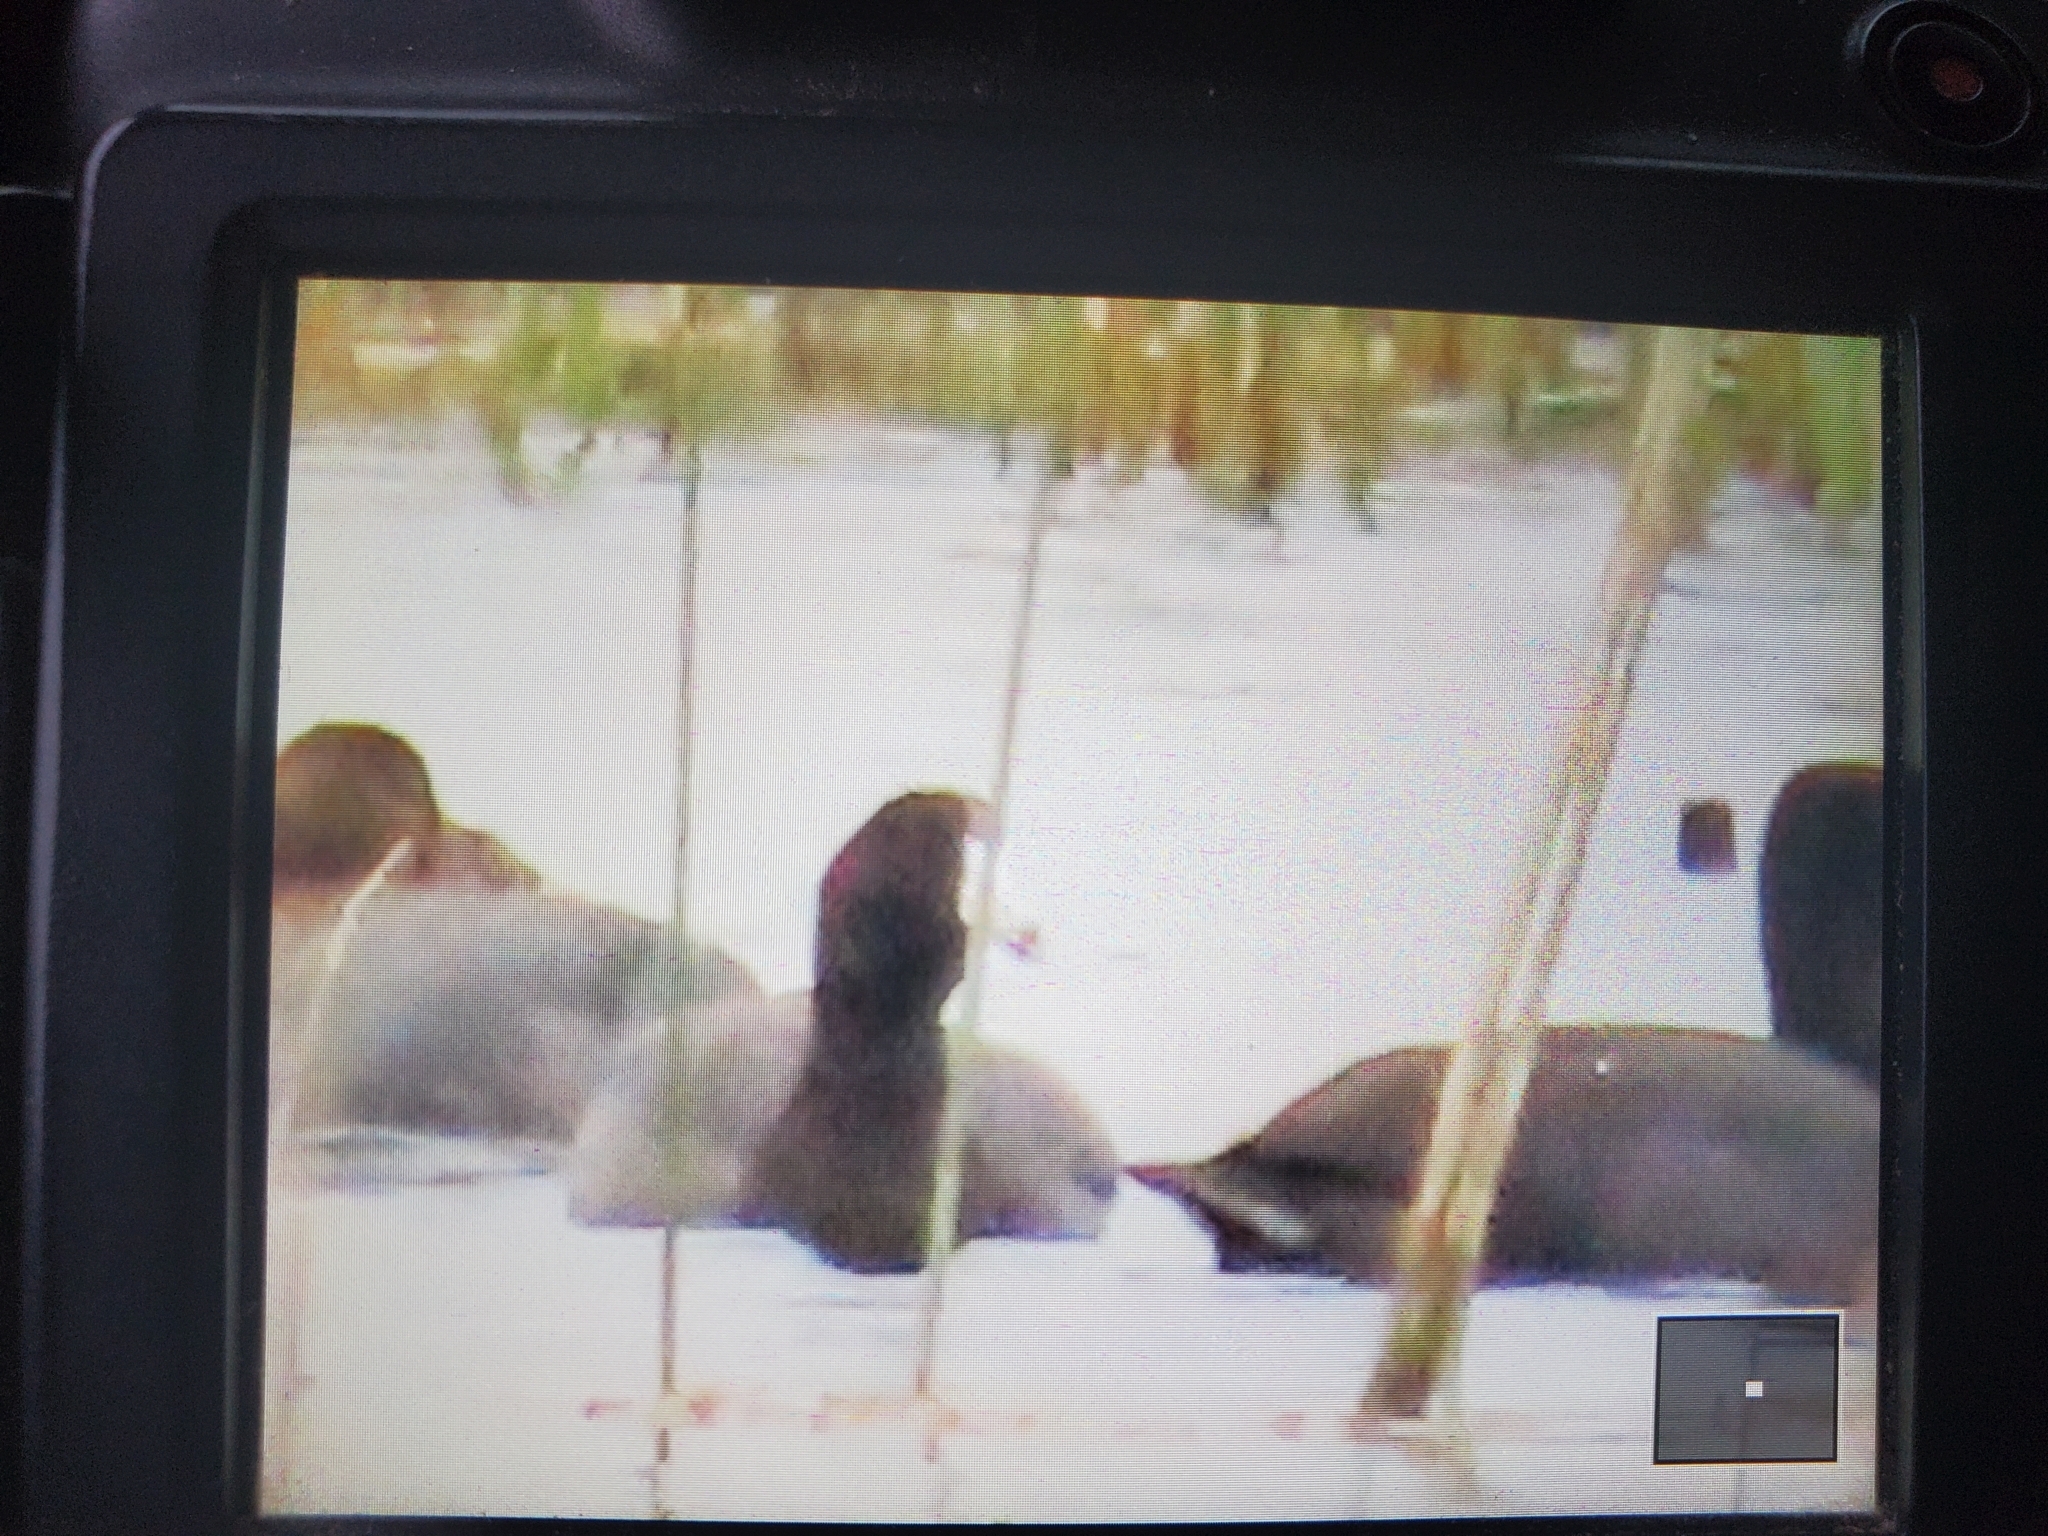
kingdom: Animalia
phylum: Chordata
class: Aves
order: Gruiformes
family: Rallidae
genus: Fulica
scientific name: Fulica americana
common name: American coot
